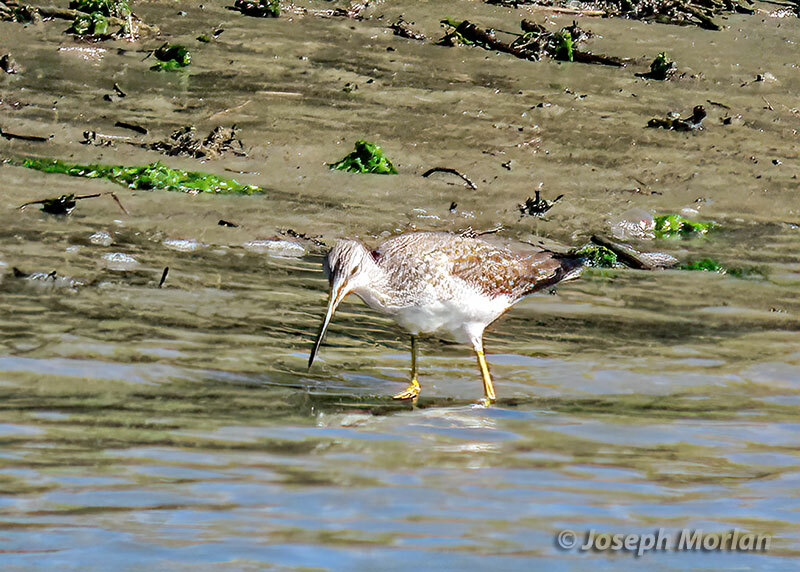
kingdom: Animalia
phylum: Chordata
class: Aves
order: Charadriiformes
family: Scolopacidae
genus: Tringa
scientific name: Tringa melanoleuca
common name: Greater yellowlegs
